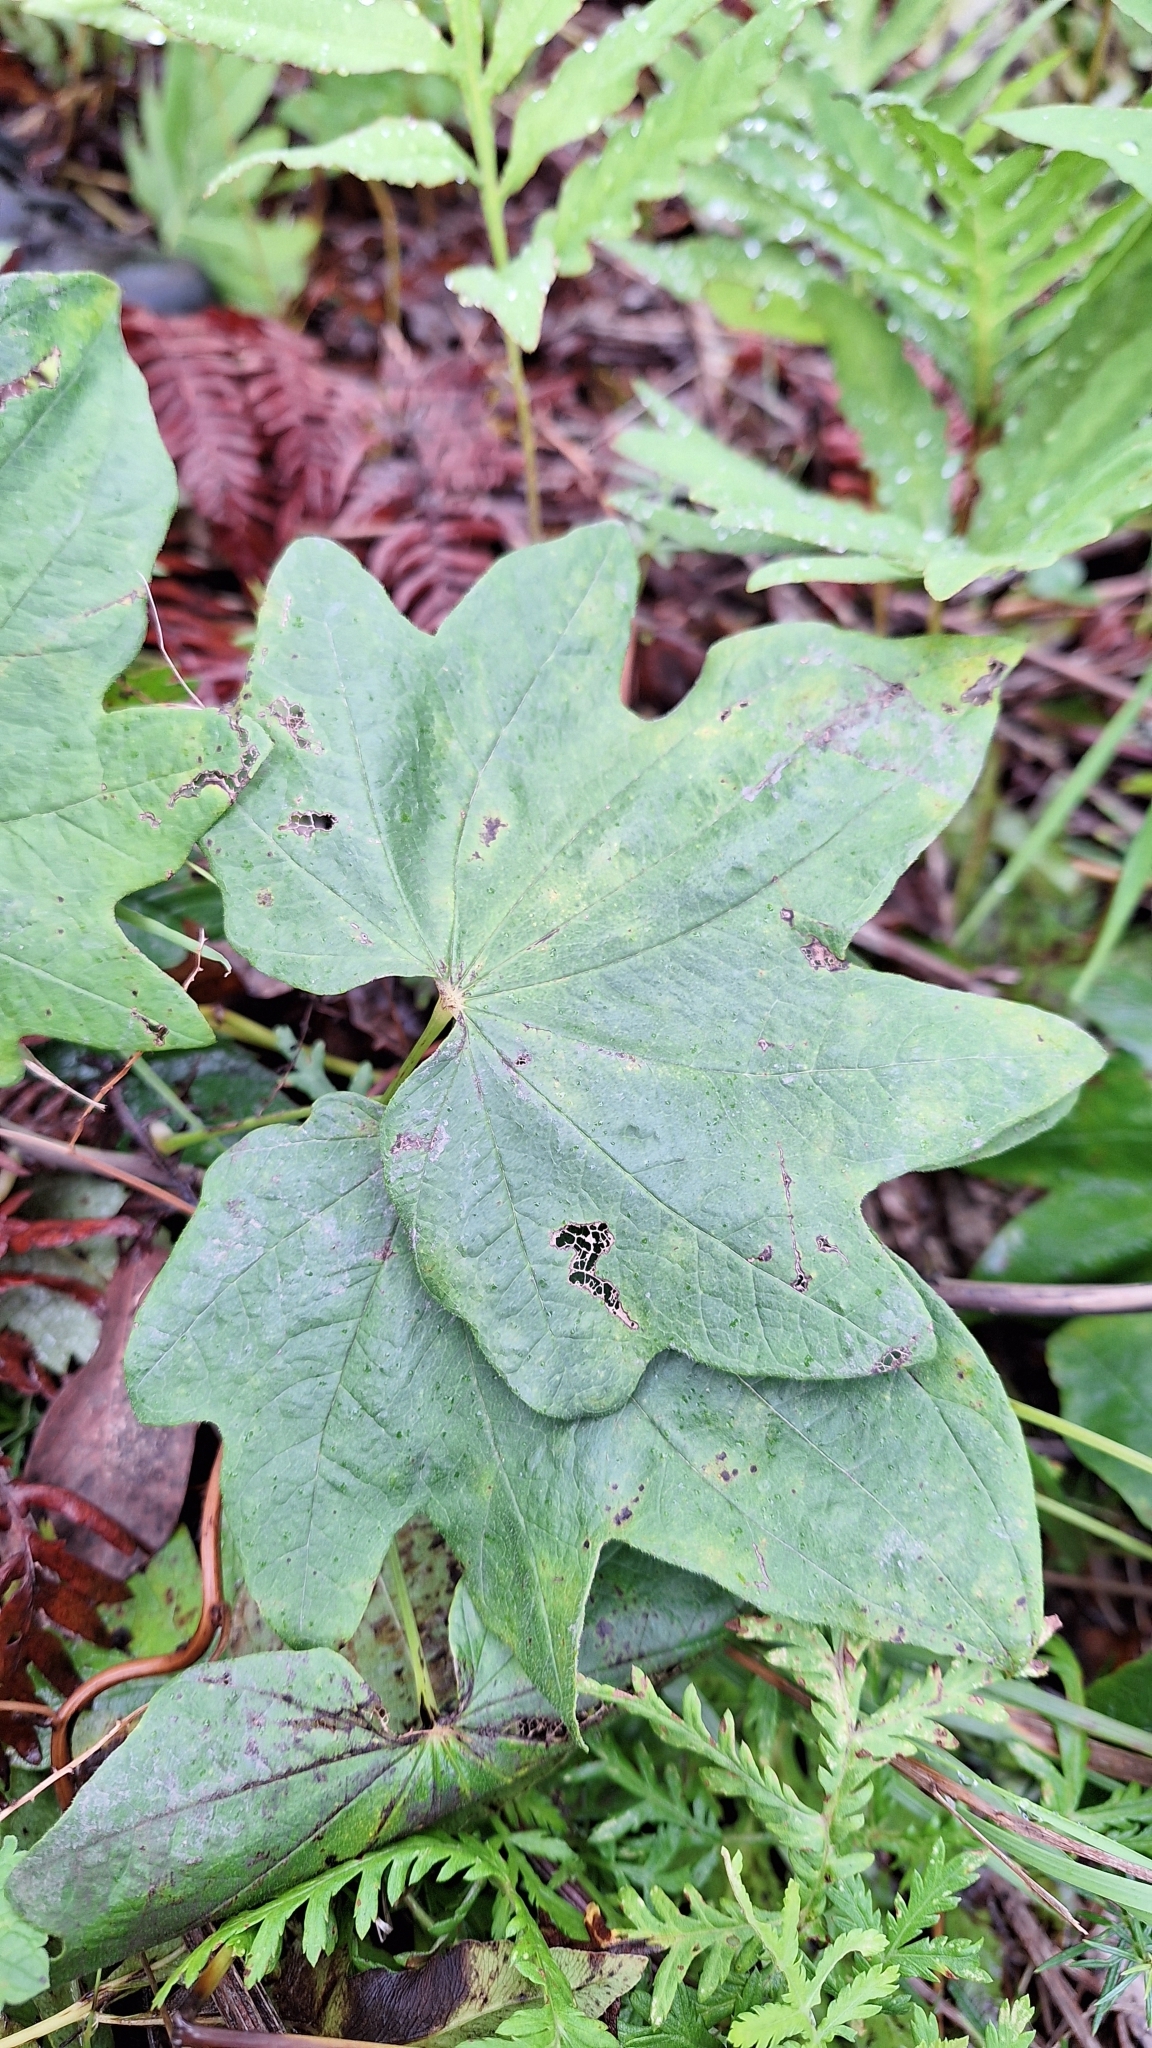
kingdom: Plantae
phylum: Tracheophyta
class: Liliopsida
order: Dioscoreales
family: Dioscoreaceae
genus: Dioscorea
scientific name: Dioscorea nipponica
